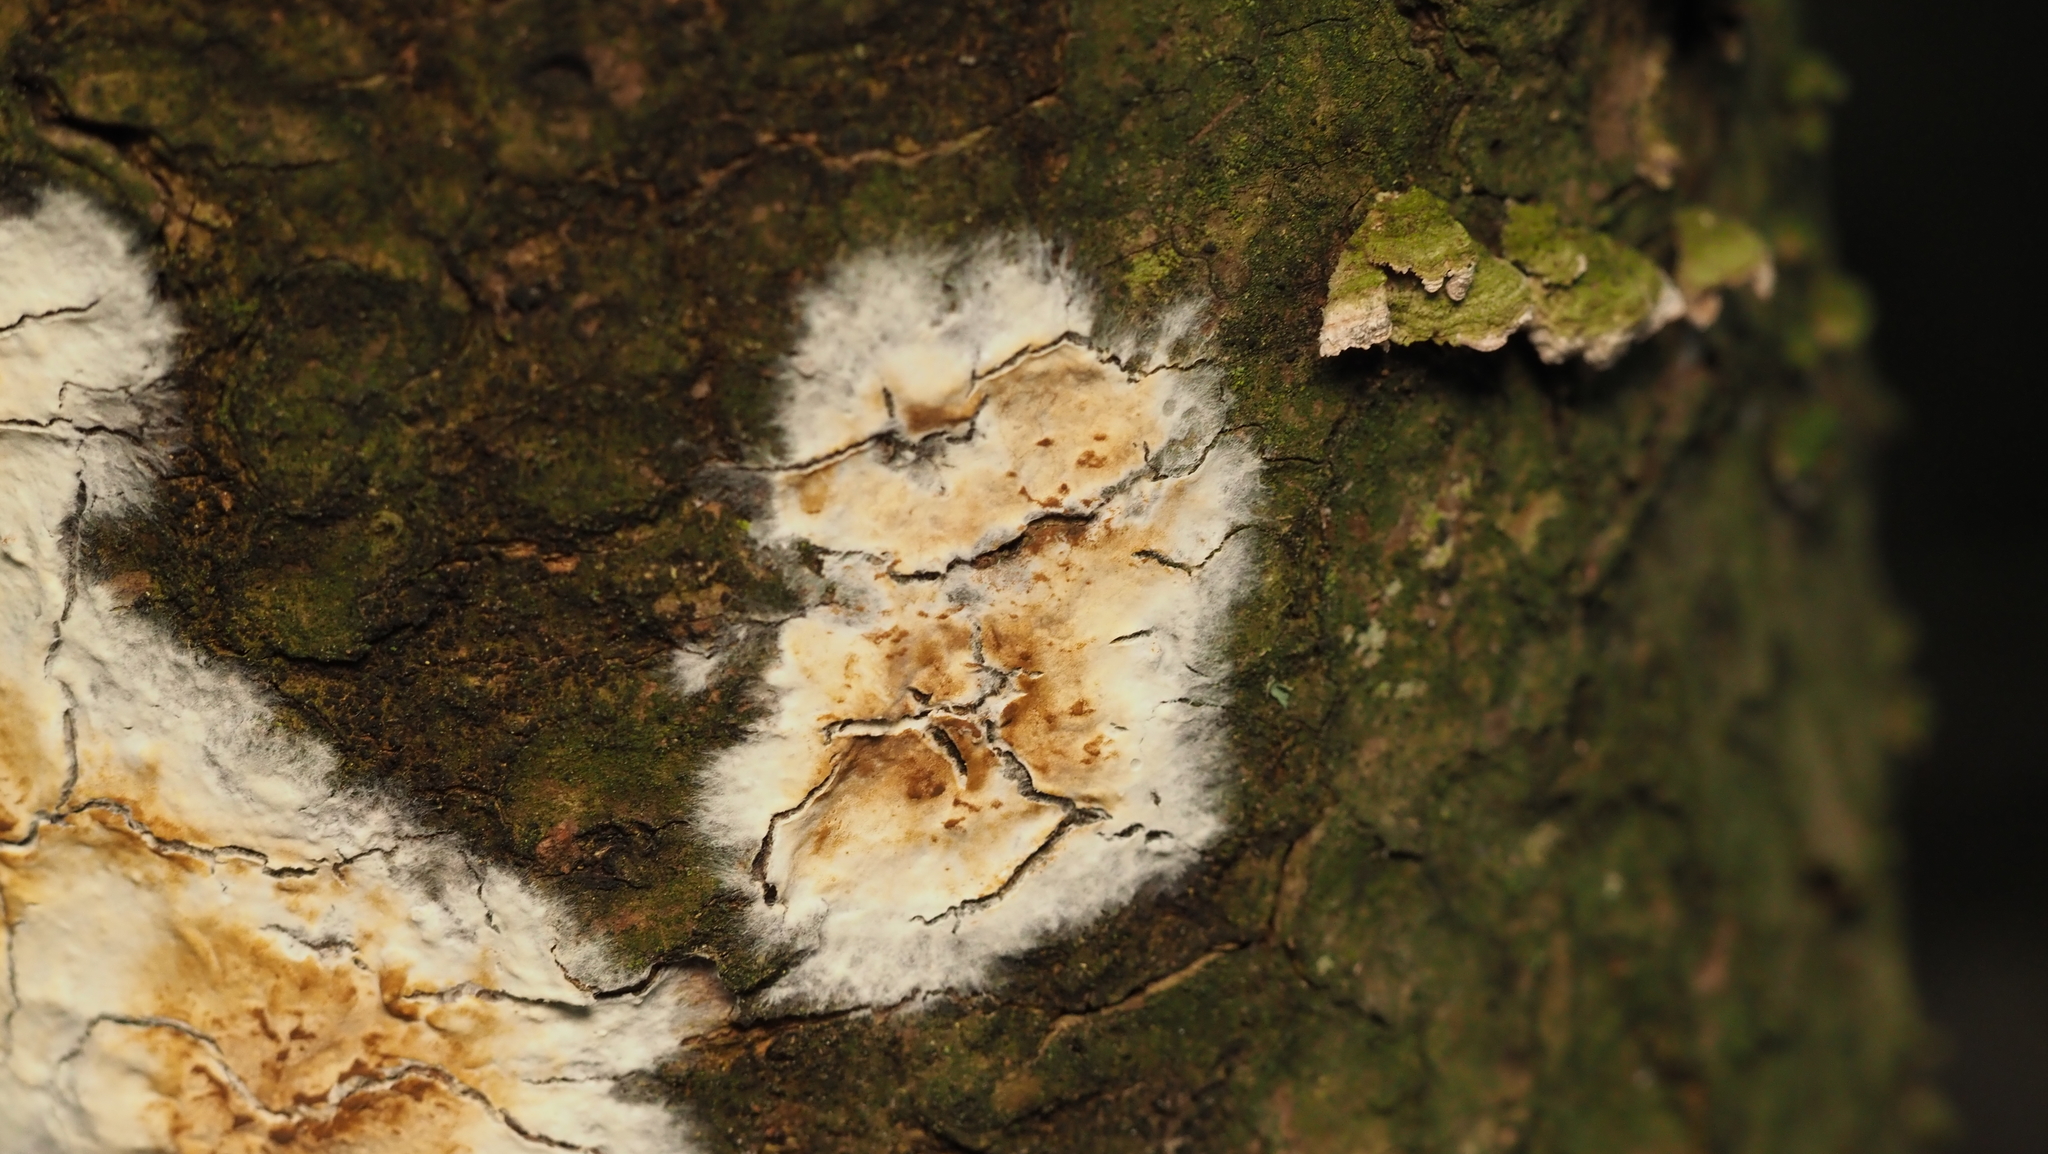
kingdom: Fungi
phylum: Basidiomycota
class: Agaricomycetes
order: Boletales
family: Coniophoraceae
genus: Coniophora
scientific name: Coniophora puteana
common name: Cellar fungus
